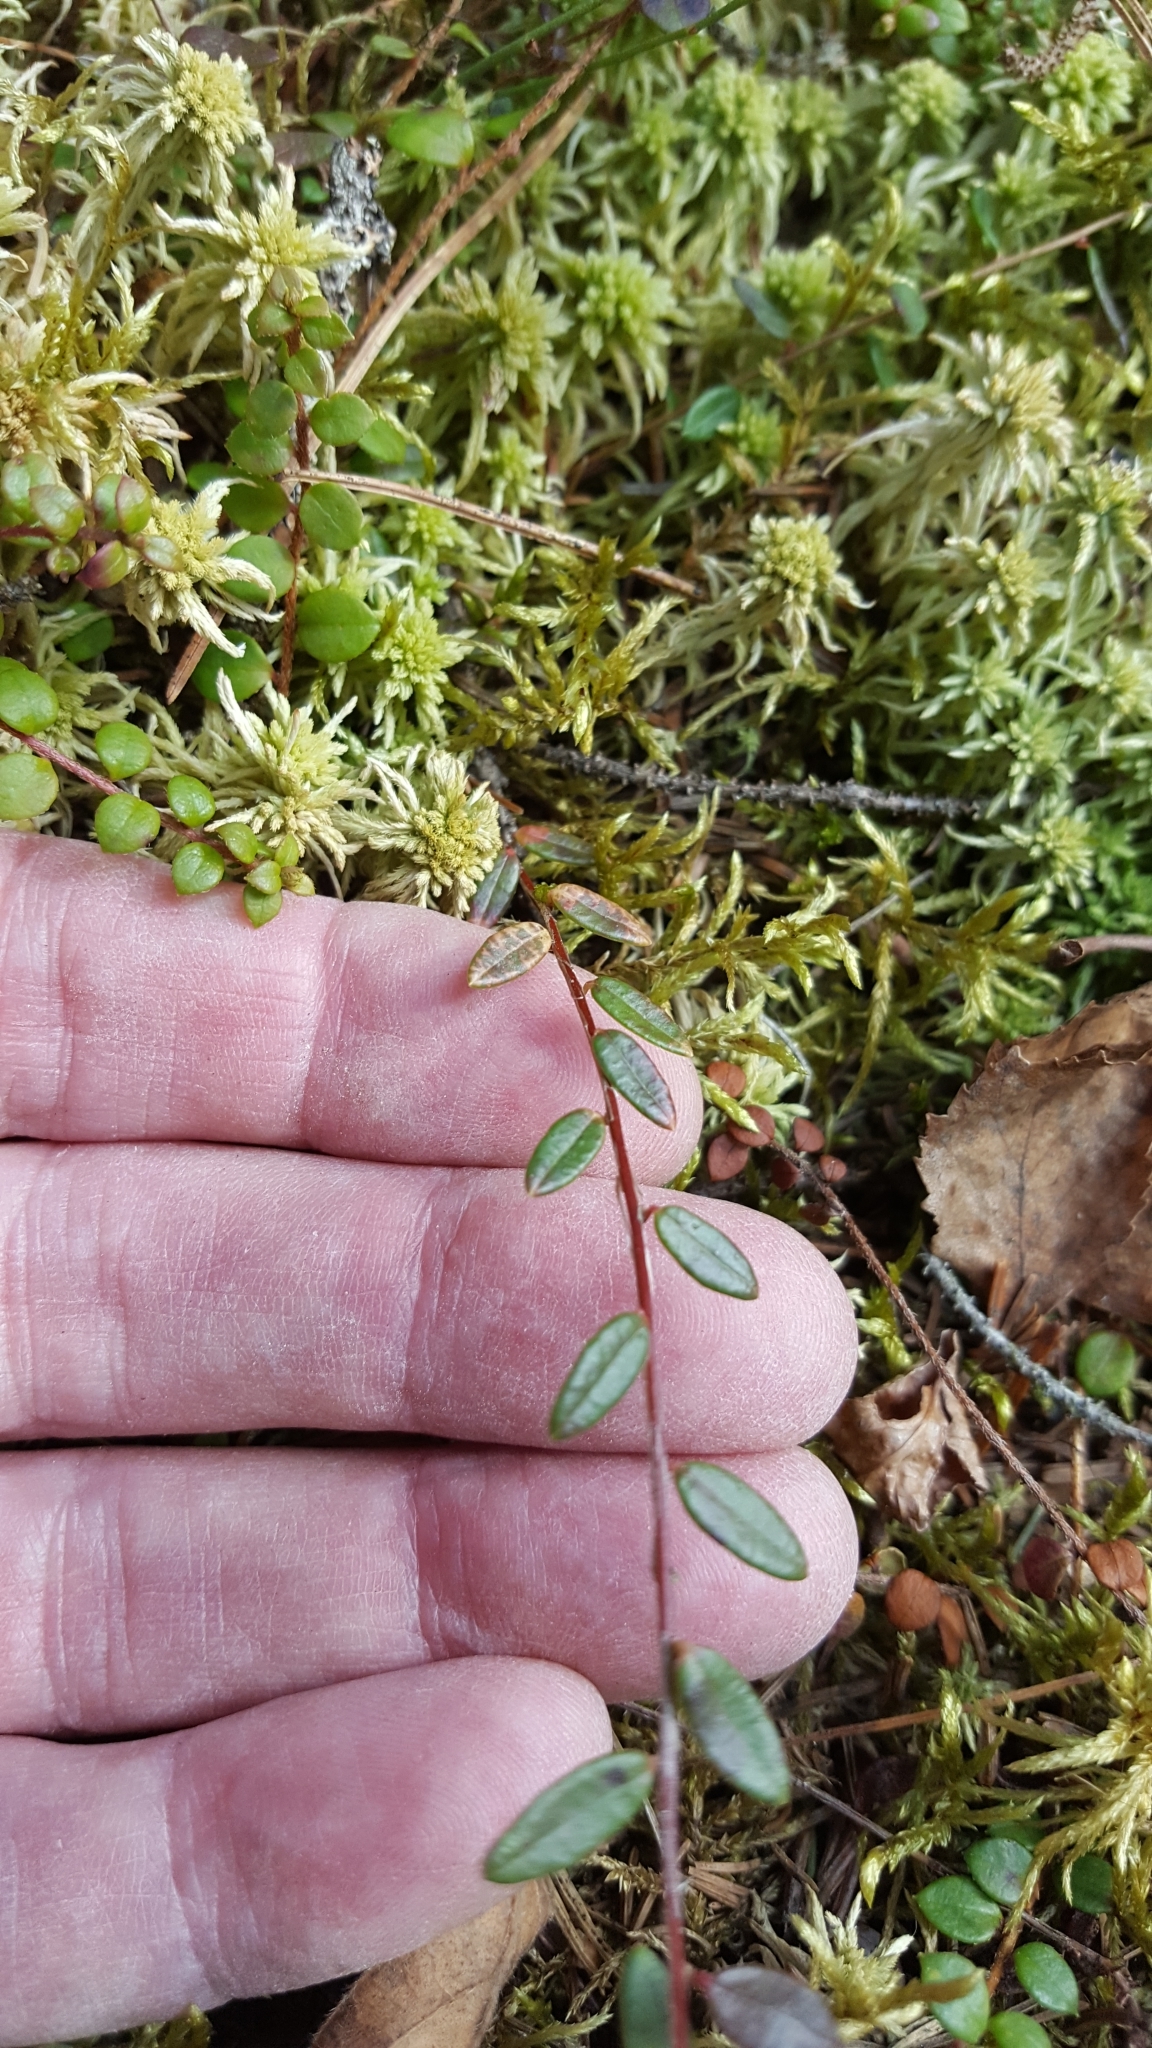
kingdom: Plantae
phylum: Tracheophyta
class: Magnoliopsida
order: Ericales
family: Ericaceae
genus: Vaccinium
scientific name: Vaccinium oxycoccos
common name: Cranberry
